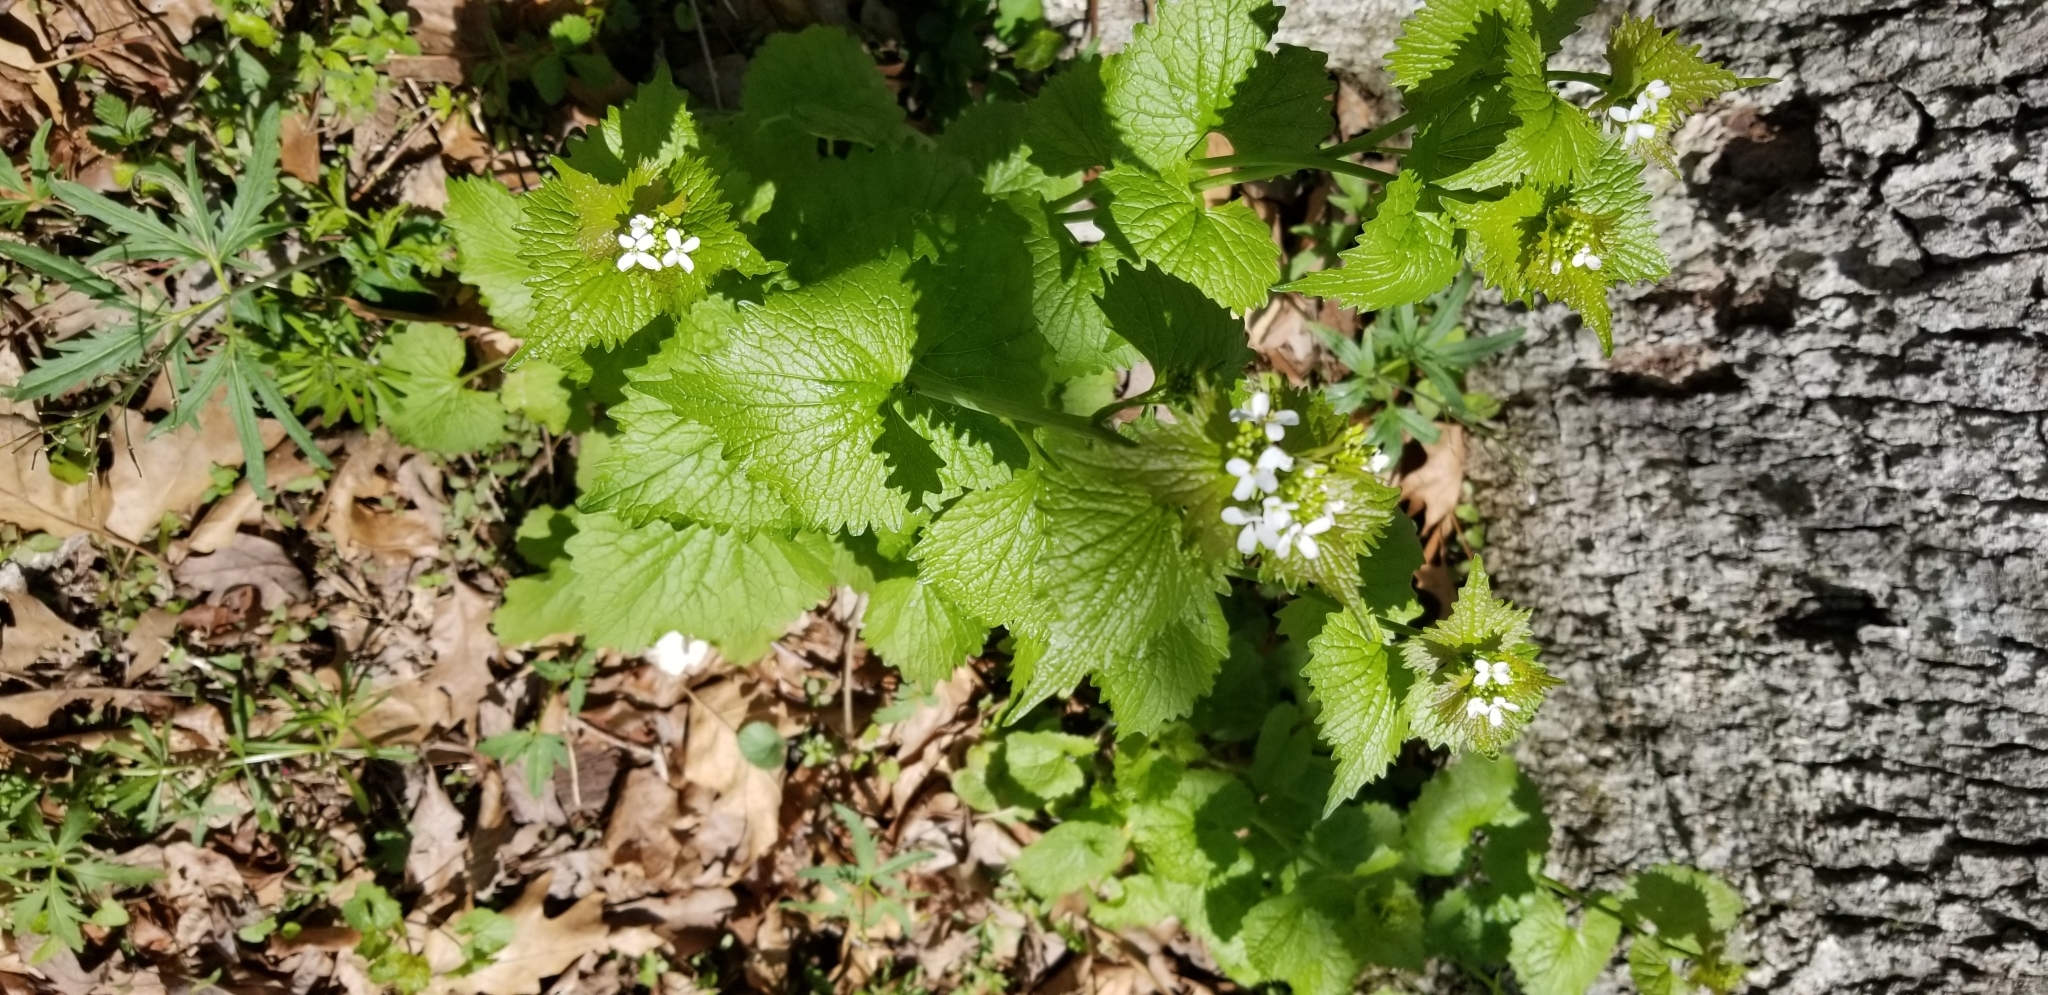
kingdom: Plantae
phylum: Tracheophyta
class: Magnoliopsida
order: Brassicales
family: Brassicaceae
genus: Alliaria
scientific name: Alliaria petiolata
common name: Garlic mustard
